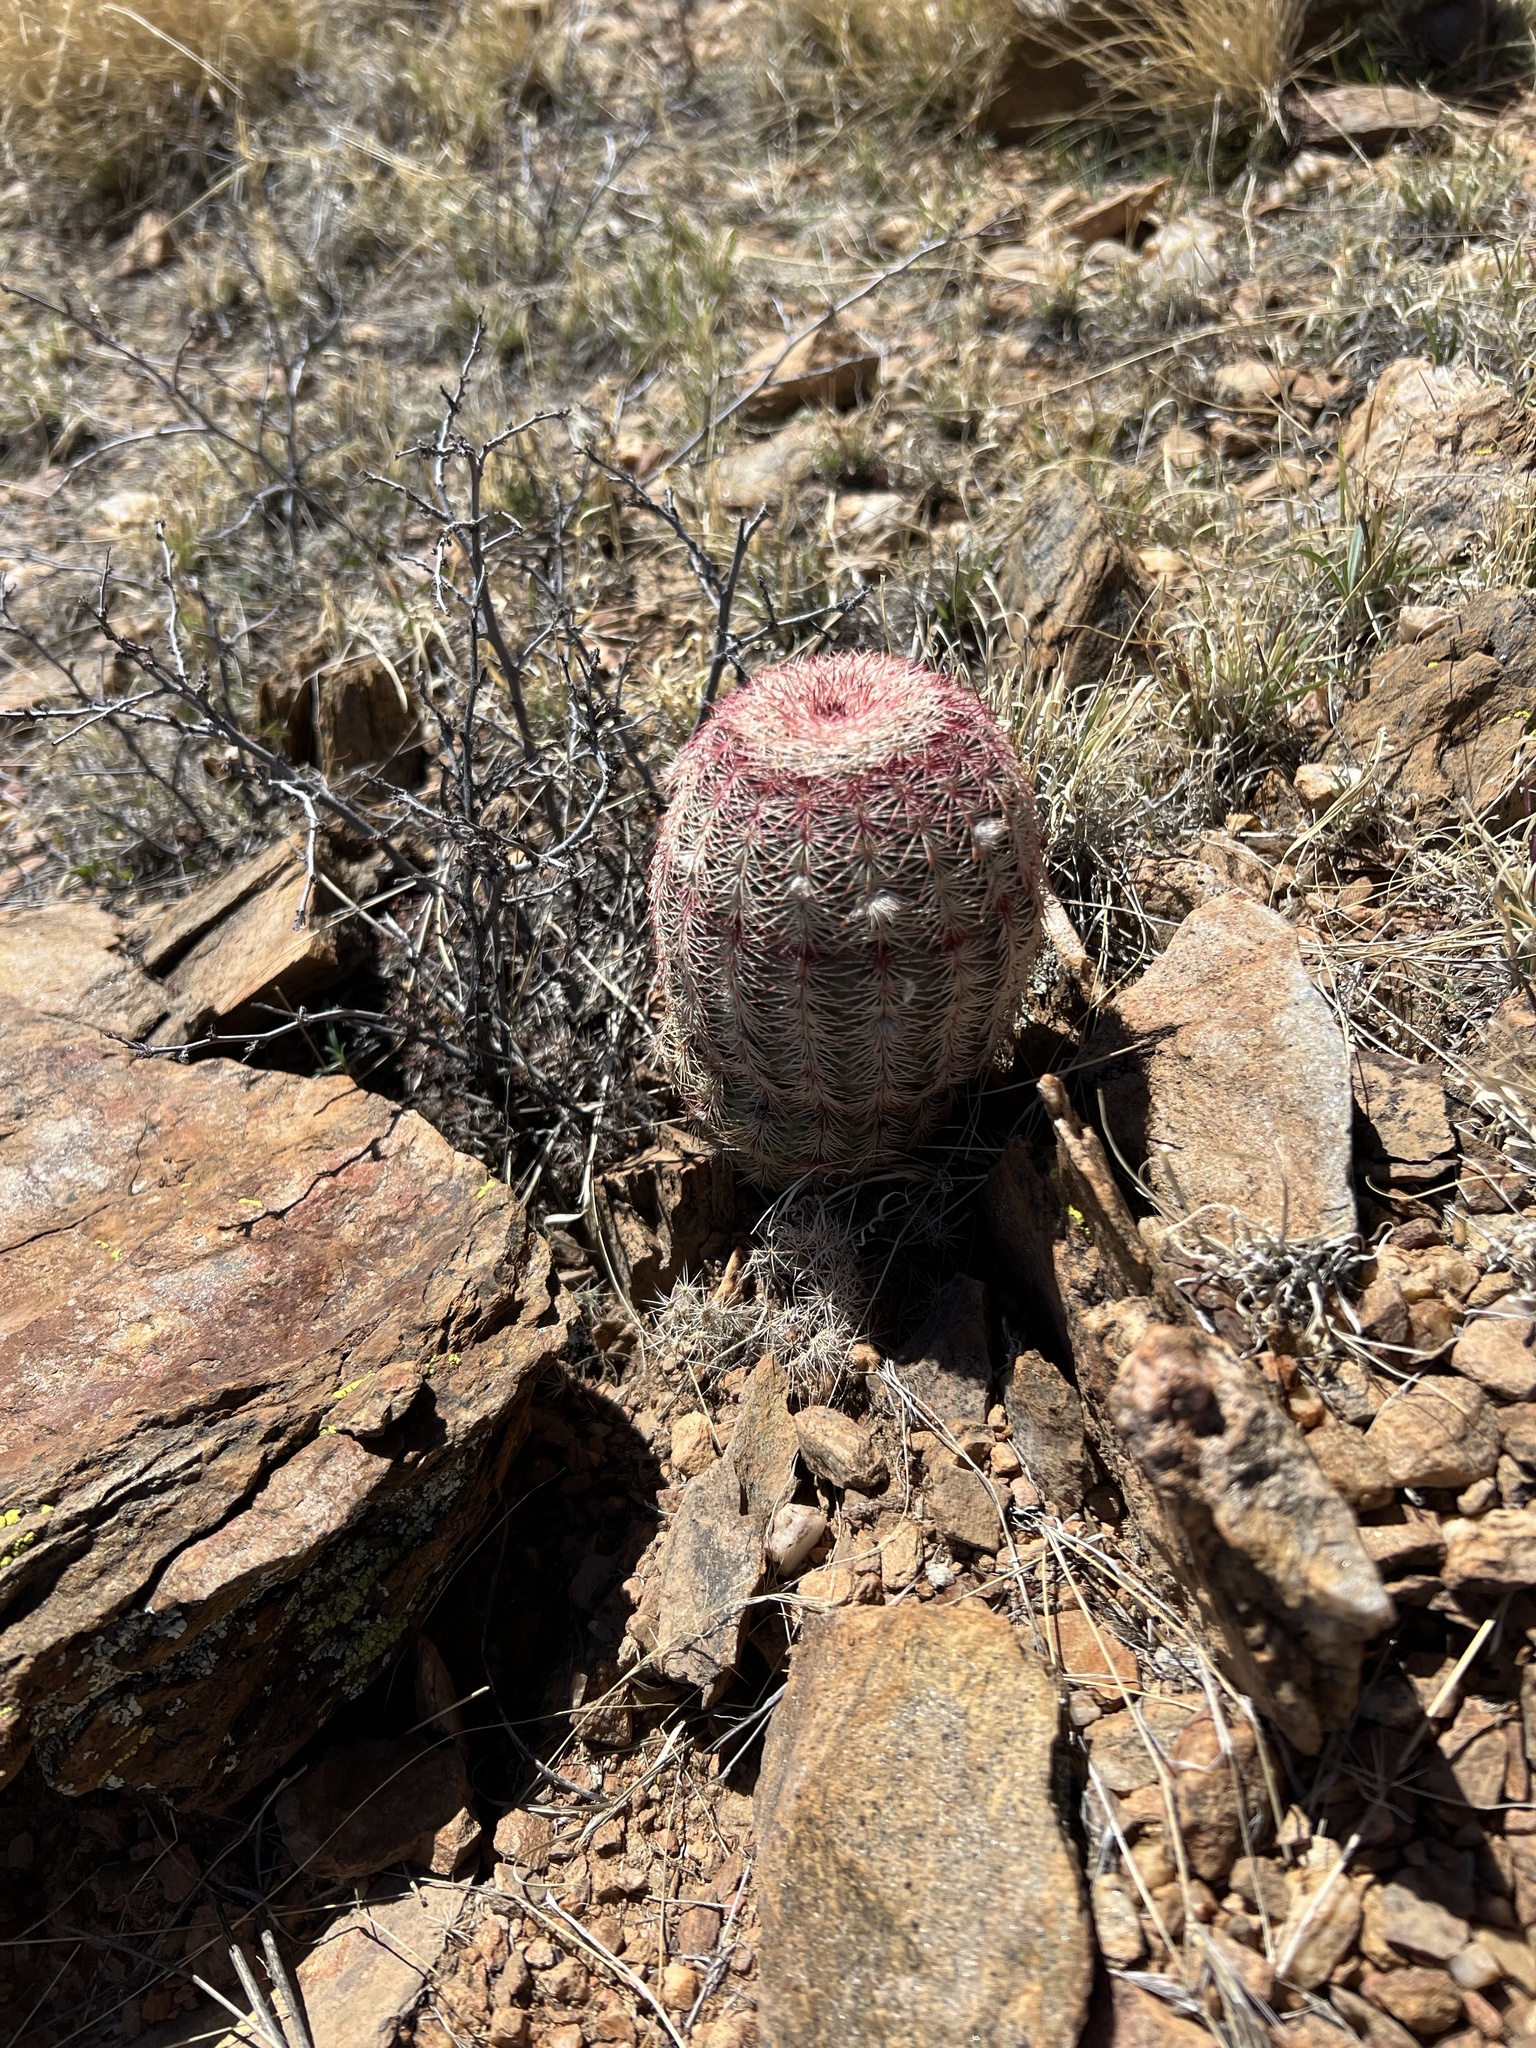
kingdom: Plantae
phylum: Tracheophyta
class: Magnoliopsida
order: Caryophyllales
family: Cactaceae
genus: Echinocereus
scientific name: Echinocereus rigidissimus
